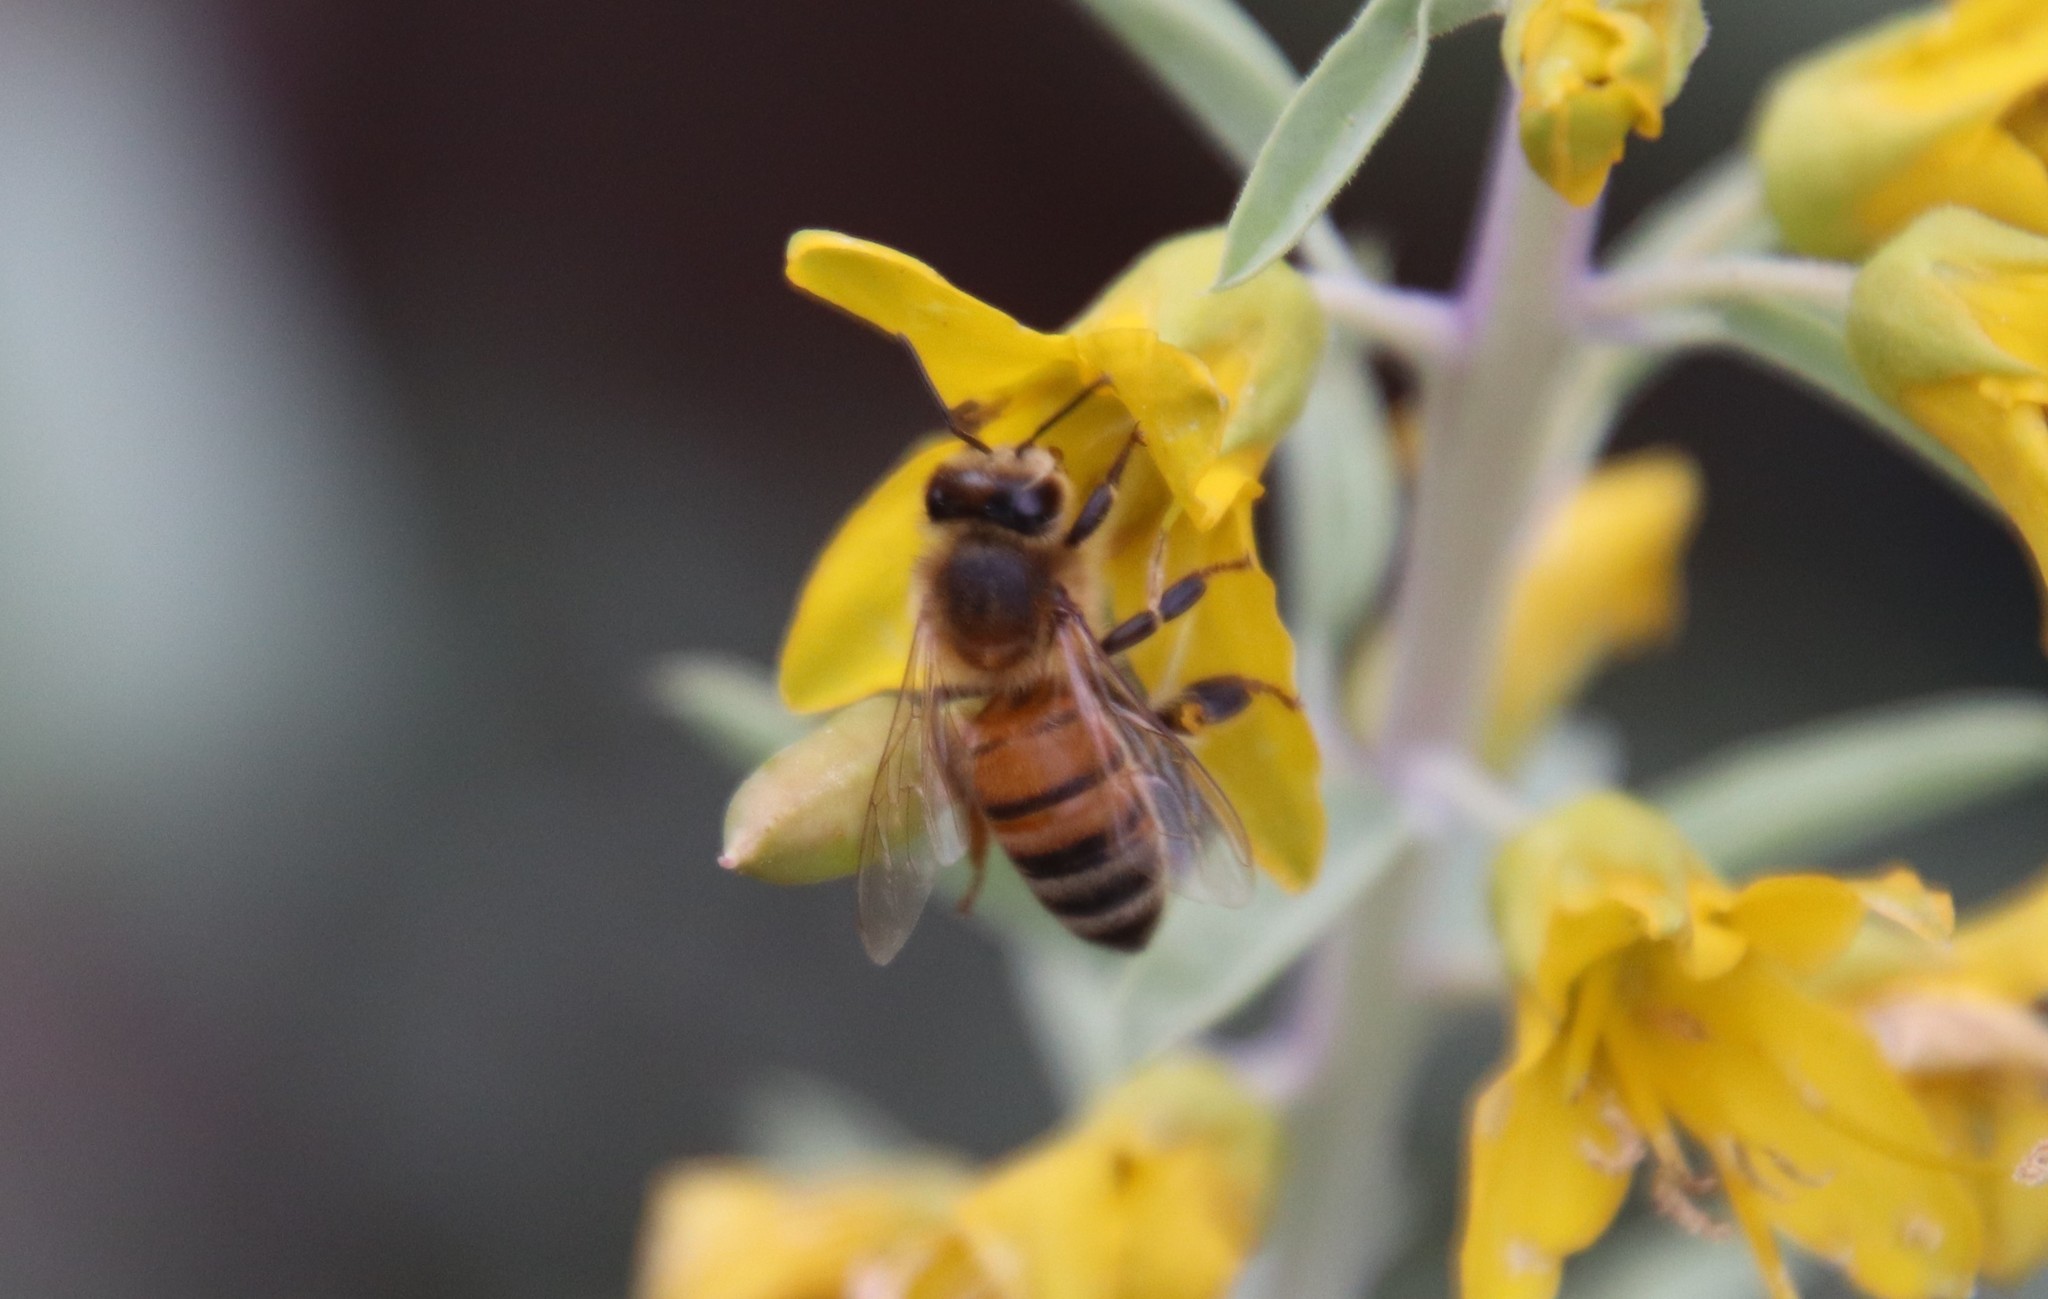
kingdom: Animalia
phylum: Arthropoda
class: Insecta
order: Hymenoptera
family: Apidae
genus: Apis
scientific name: Apis mellifera
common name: Honey bee
